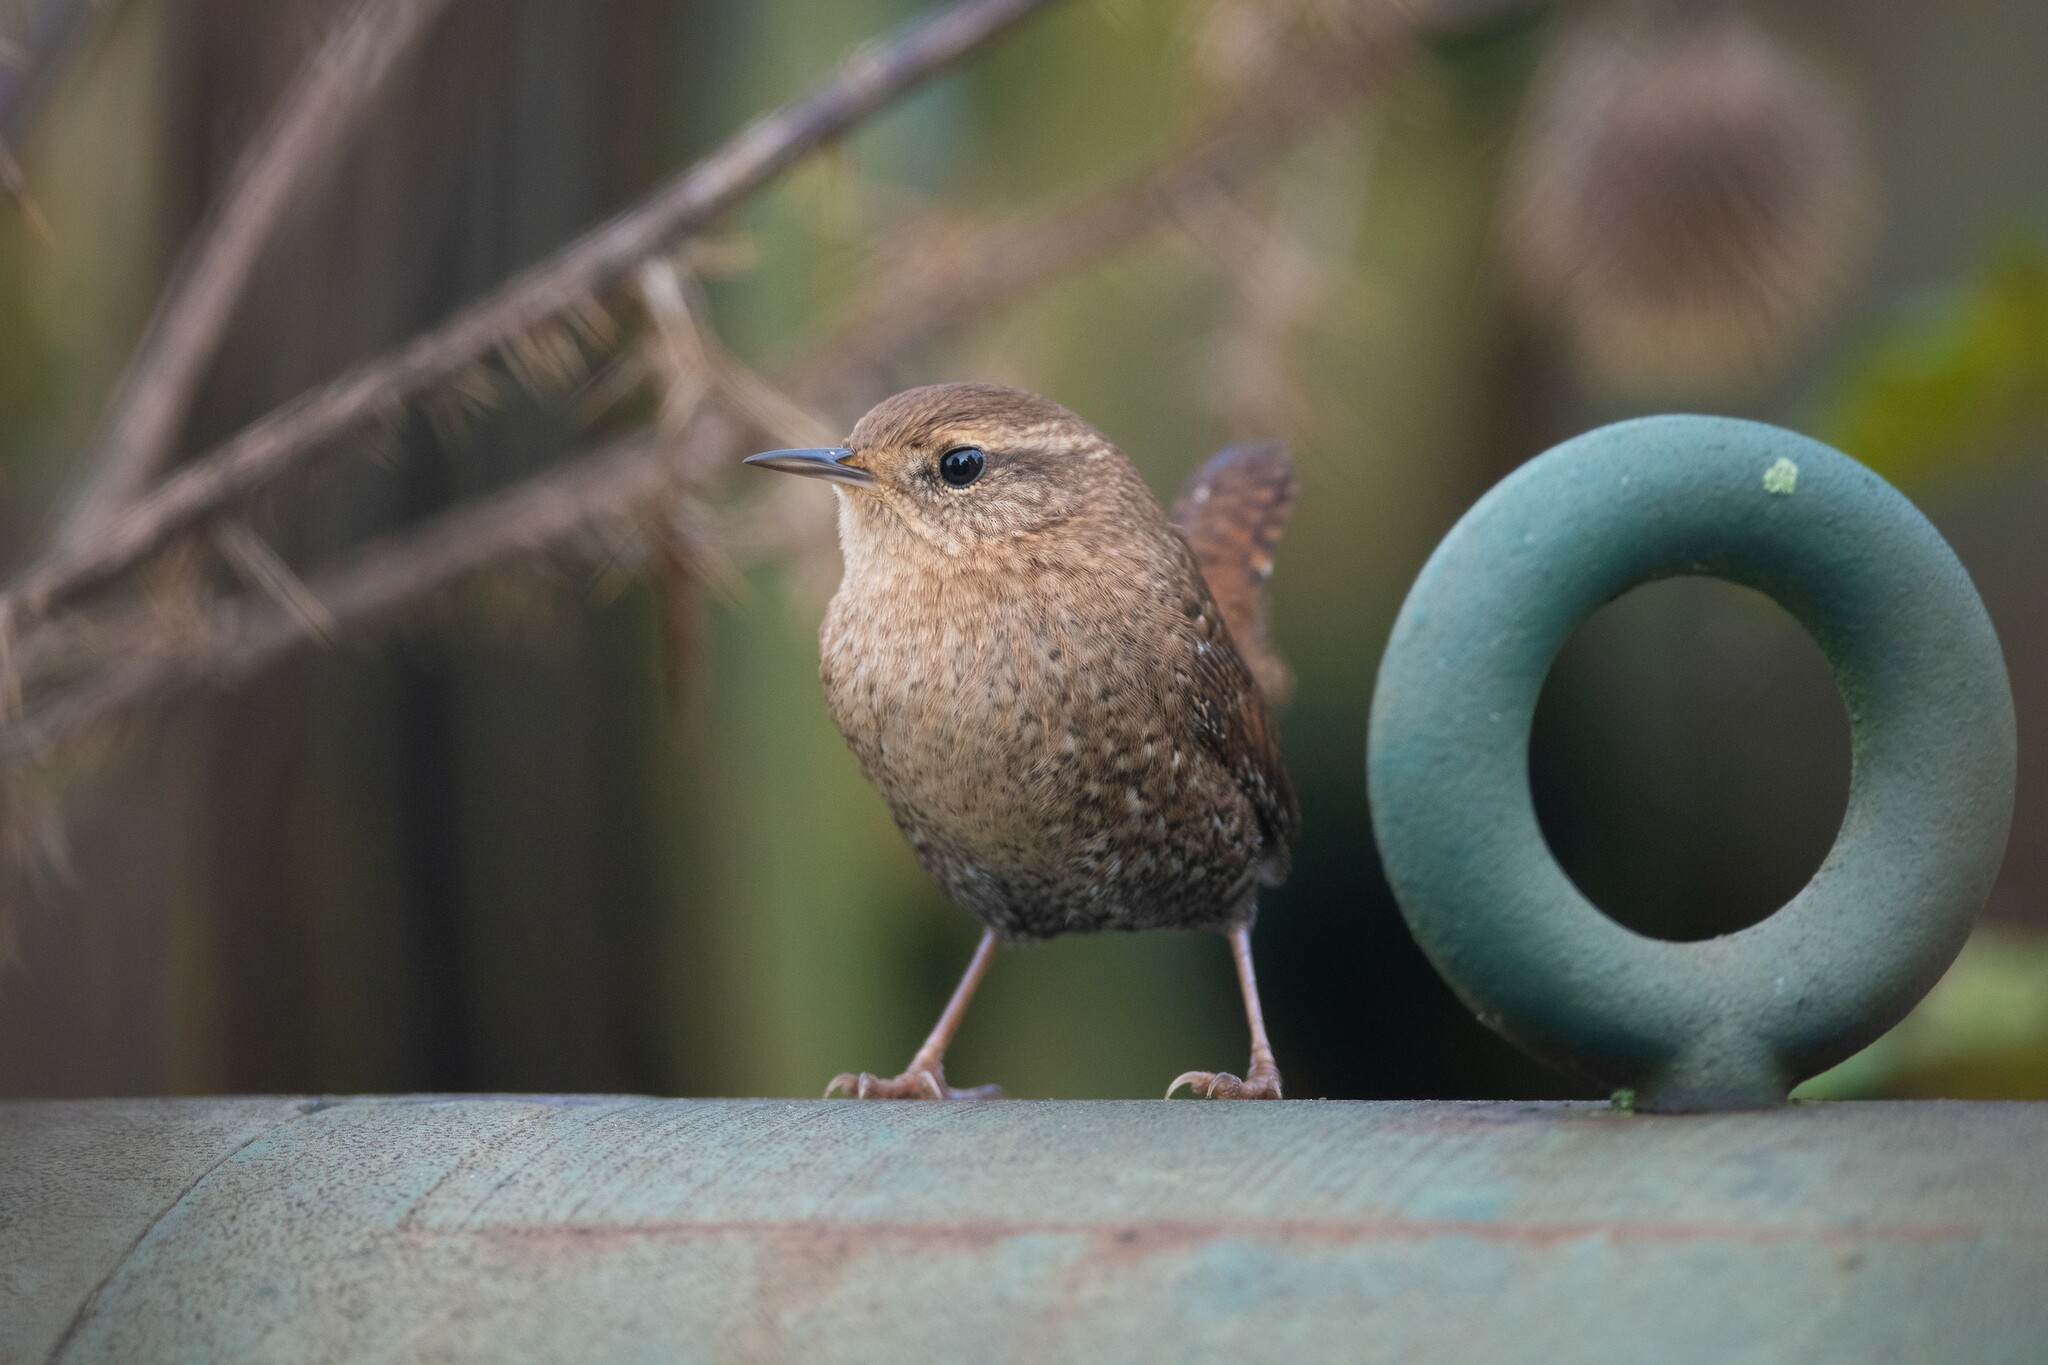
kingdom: Animalia
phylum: Chordata
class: Aves
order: Passeriformes
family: Troglodytidae
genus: Troglodytes
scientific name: Troglodytes hiemalis
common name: Winter wren
